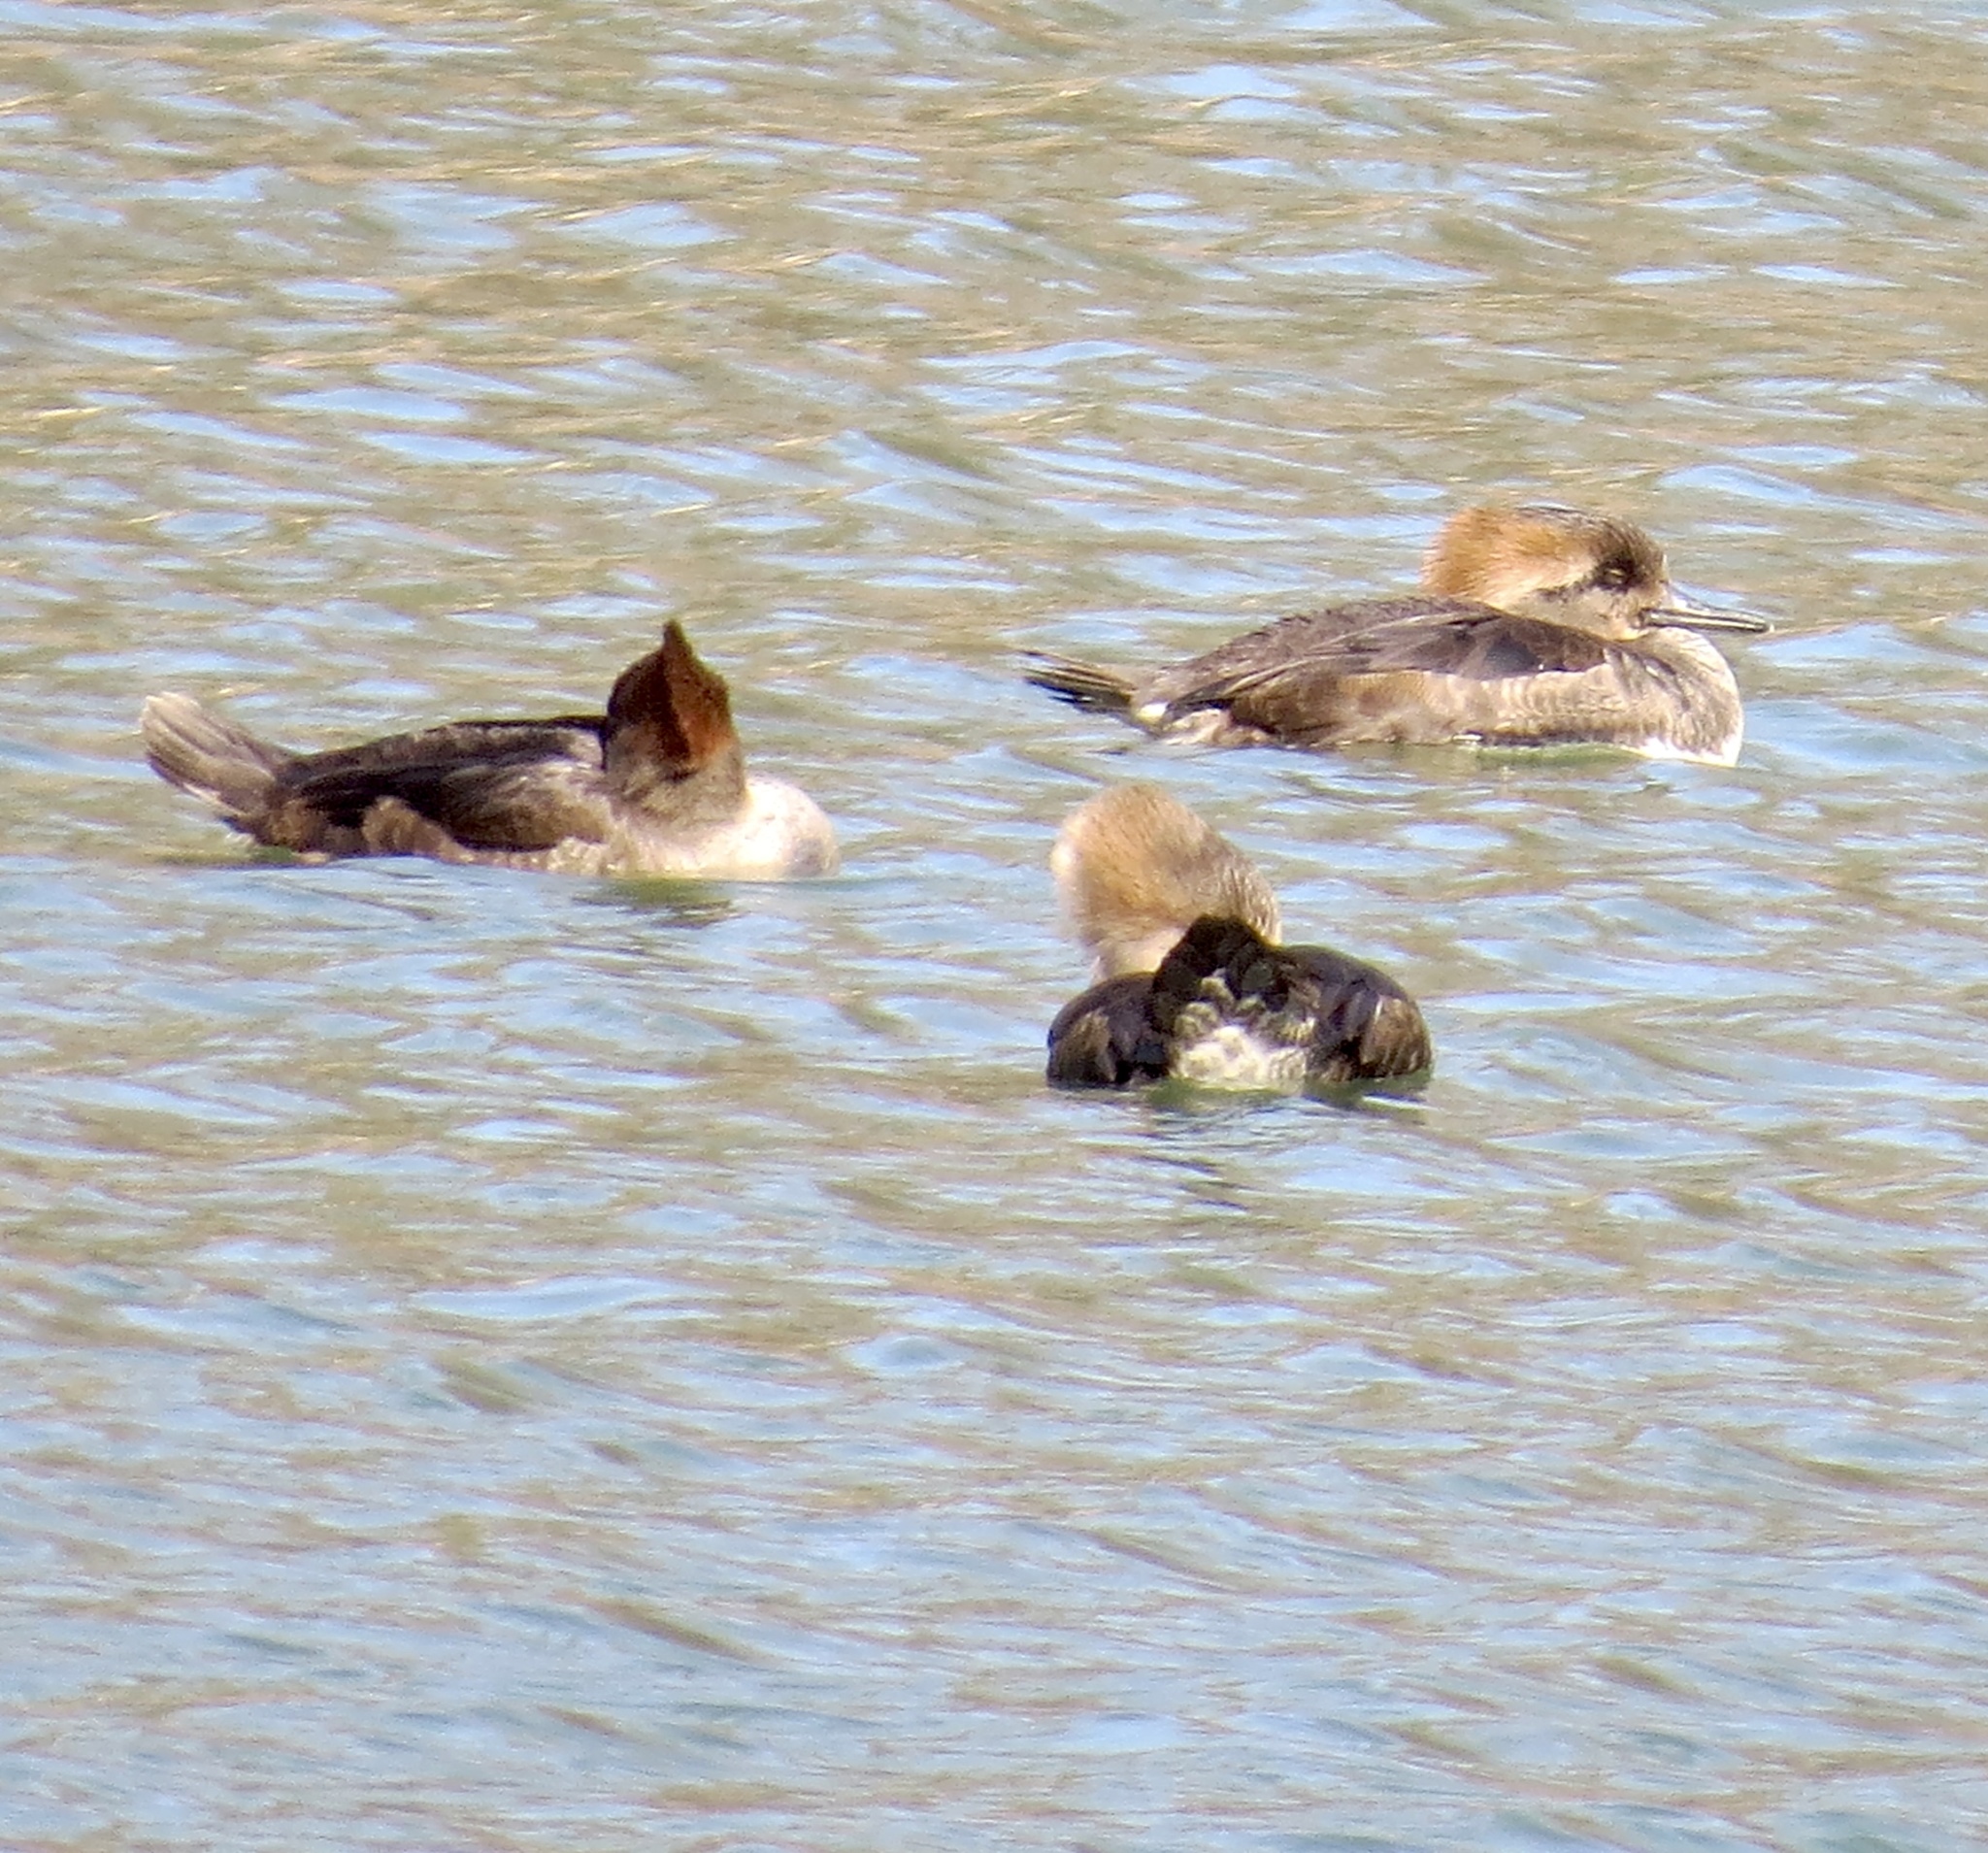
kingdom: Animalia
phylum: Chordata
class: Aves
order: Anseriformes
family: Anatidae
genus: Lophodytes
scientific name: Lophodytes cucullatus
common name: Hooded merganser
